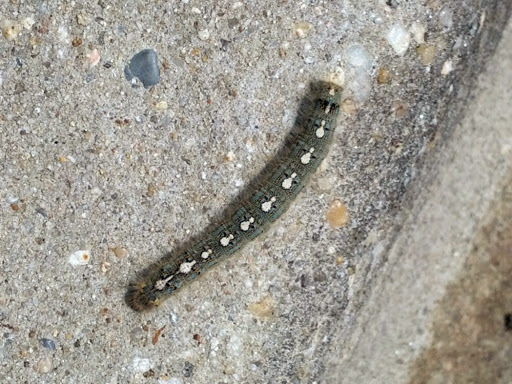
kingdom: Animalia
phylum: Arthropoda
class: Insecta
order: Lepidoptera
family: Lasiocampidae
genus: Malacosoma
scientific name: Malacosoma disstria
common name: Forest tent caterpillar
